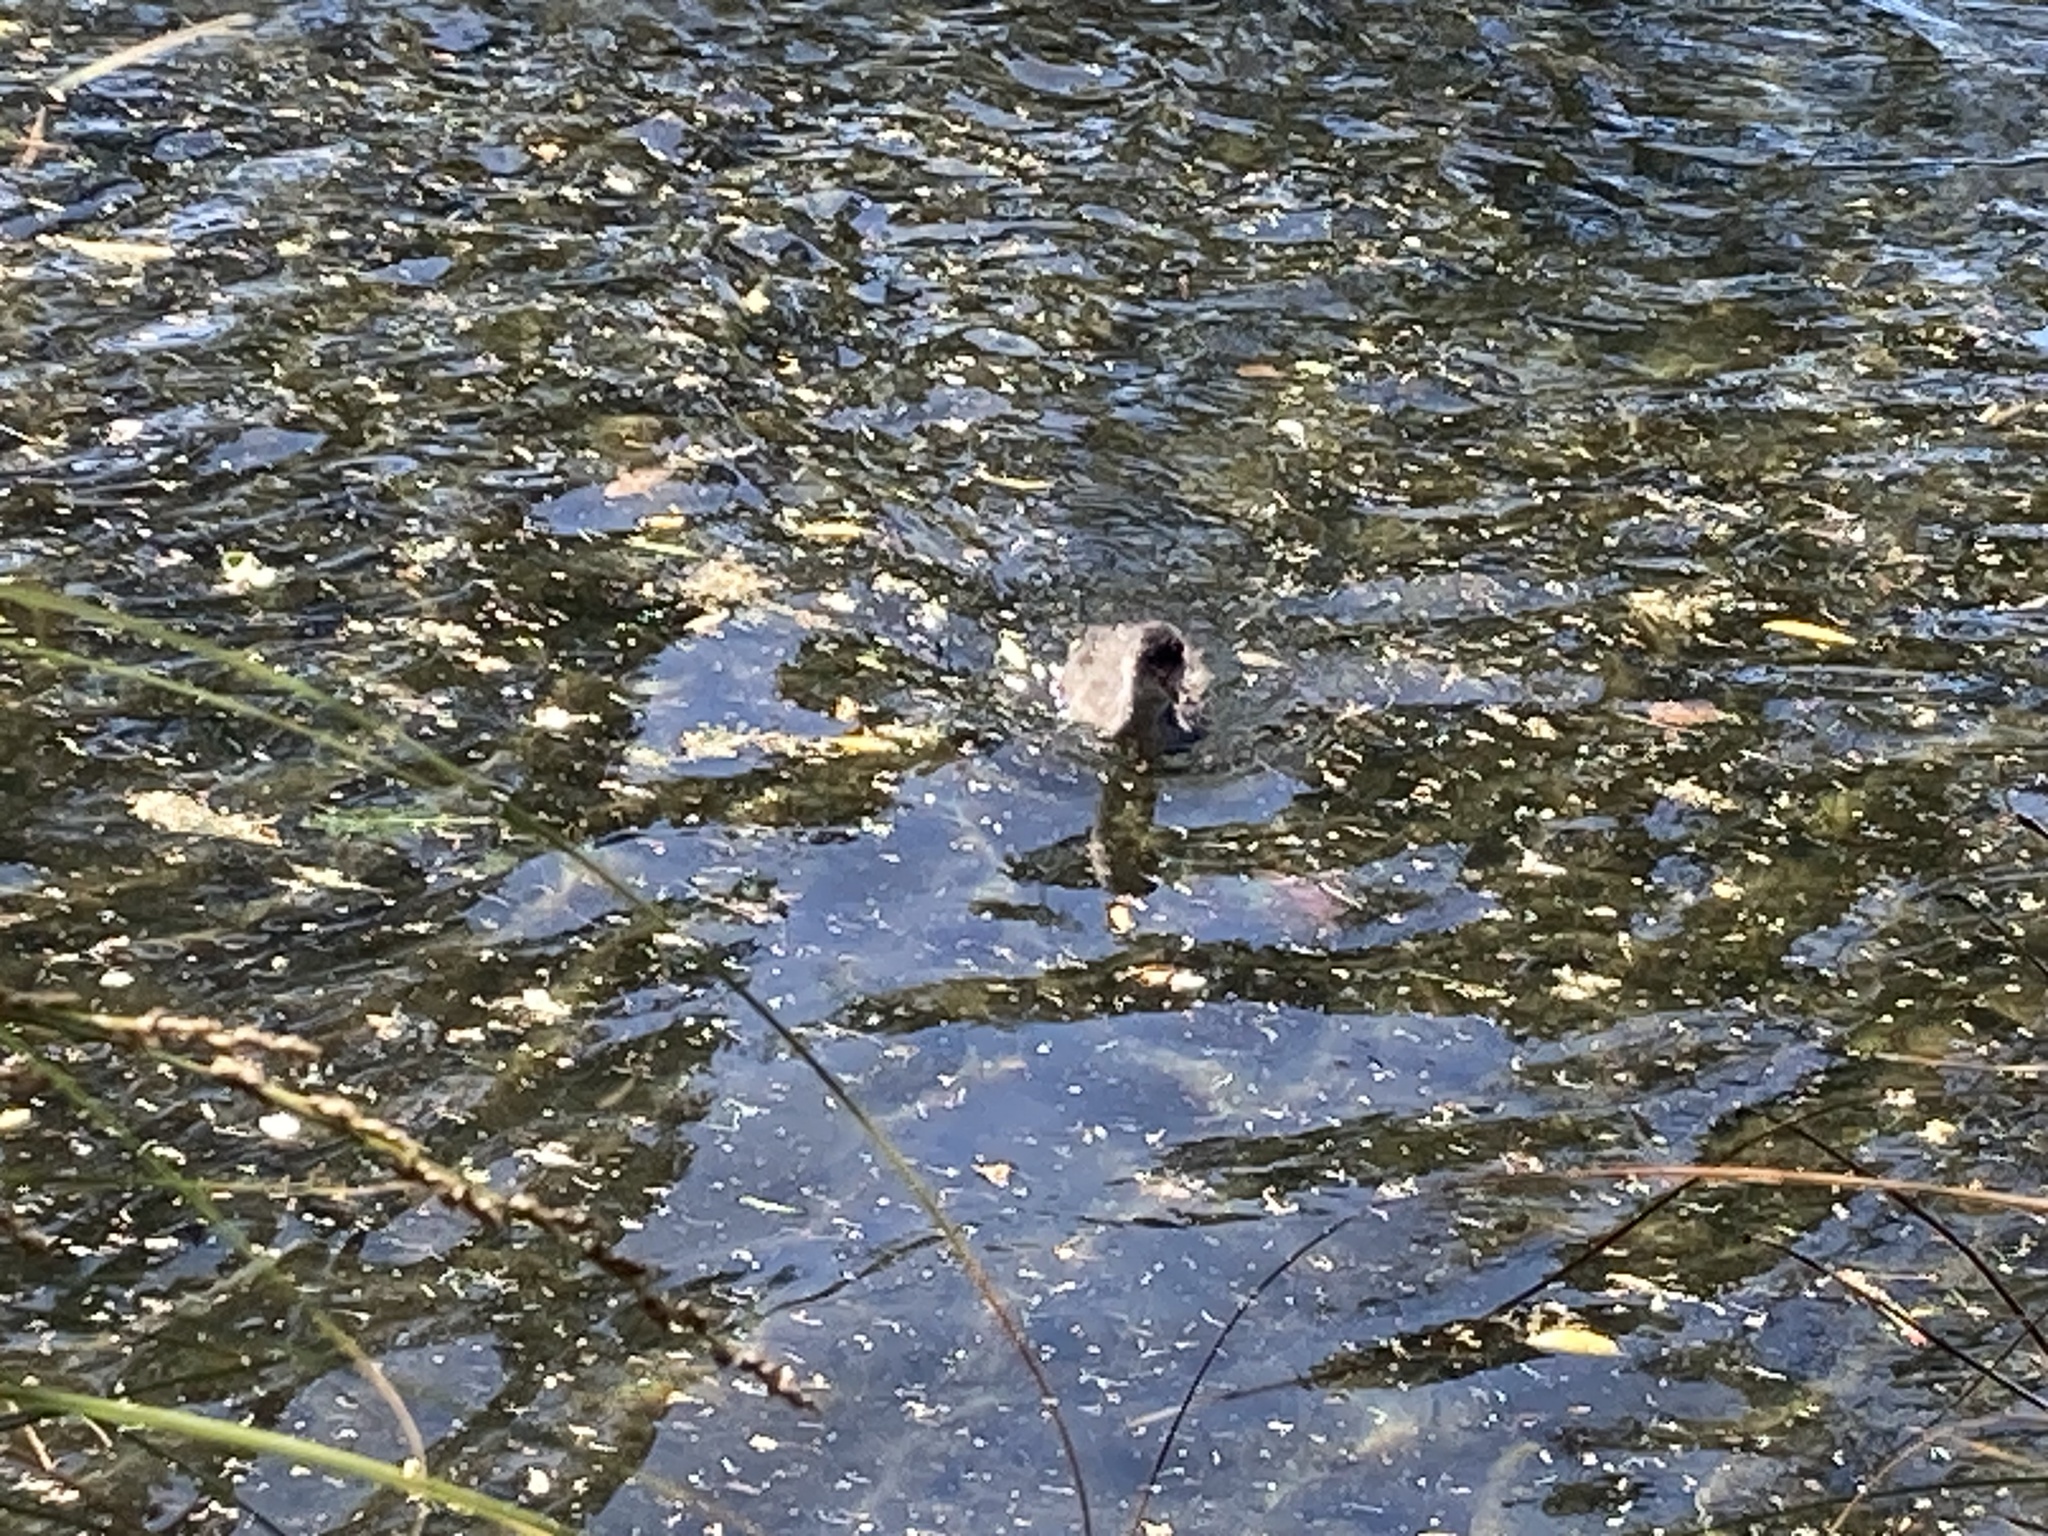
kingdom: Animalia
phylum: Chordata
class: Aves
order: Gruiformes
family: Rallidae
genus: Fulica
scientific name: Fulica atra
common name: Eurasian coot
